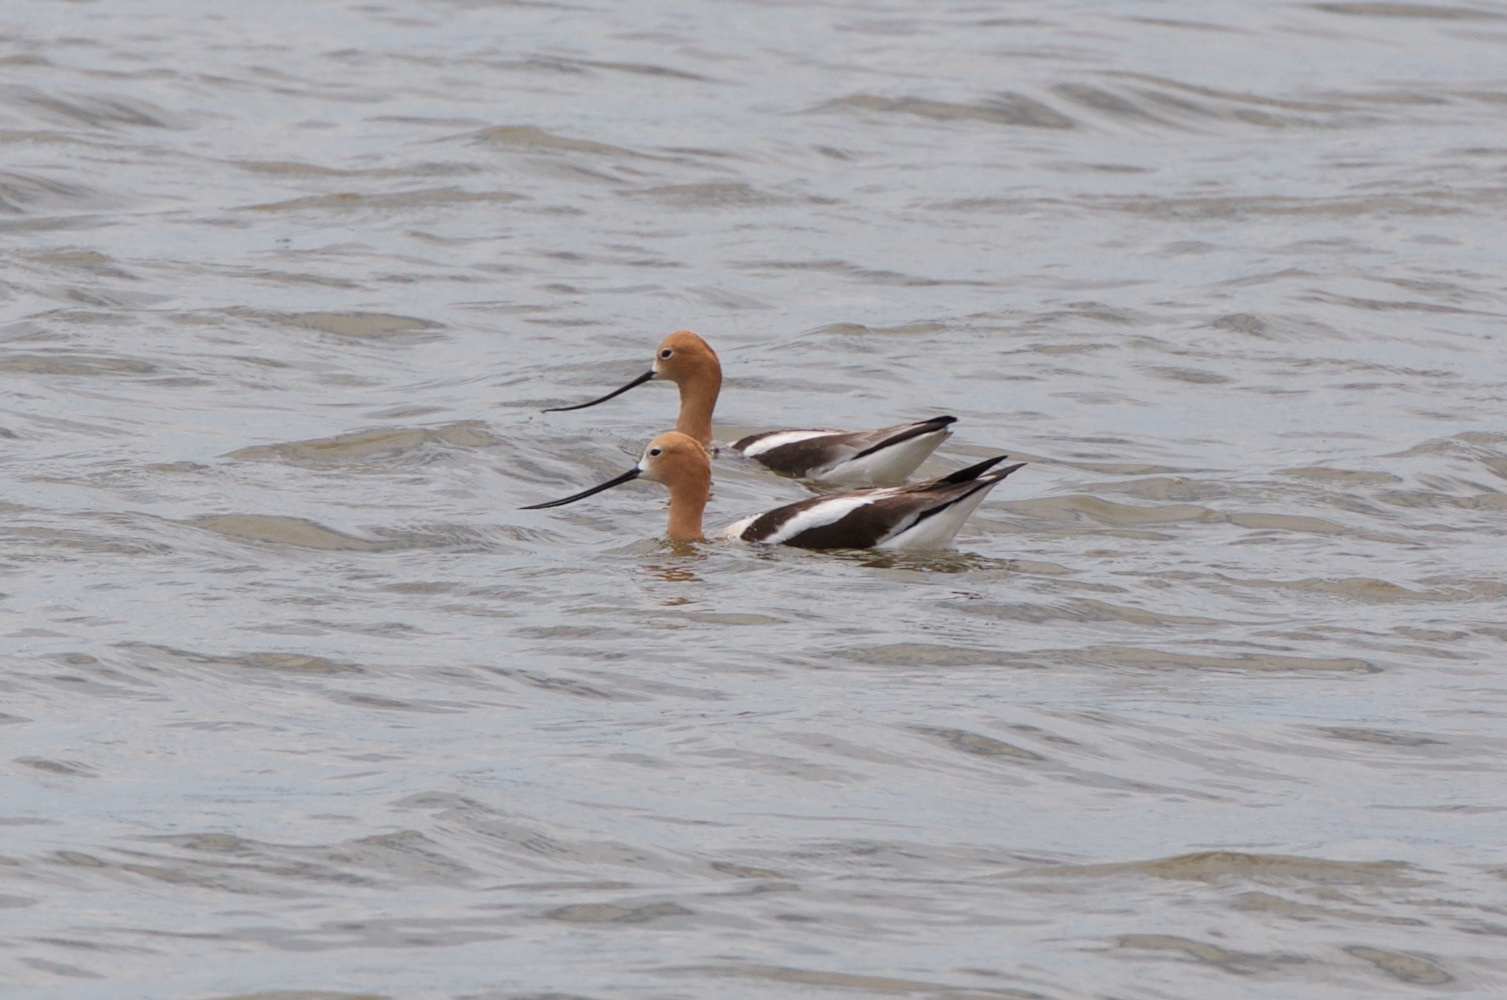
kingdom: Animalia
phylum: Chordata
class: Aves
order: Charadriiformes
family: Recurvirostridae
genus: Recurvirostra
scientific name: Recurvirostra americana
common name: American avocet
